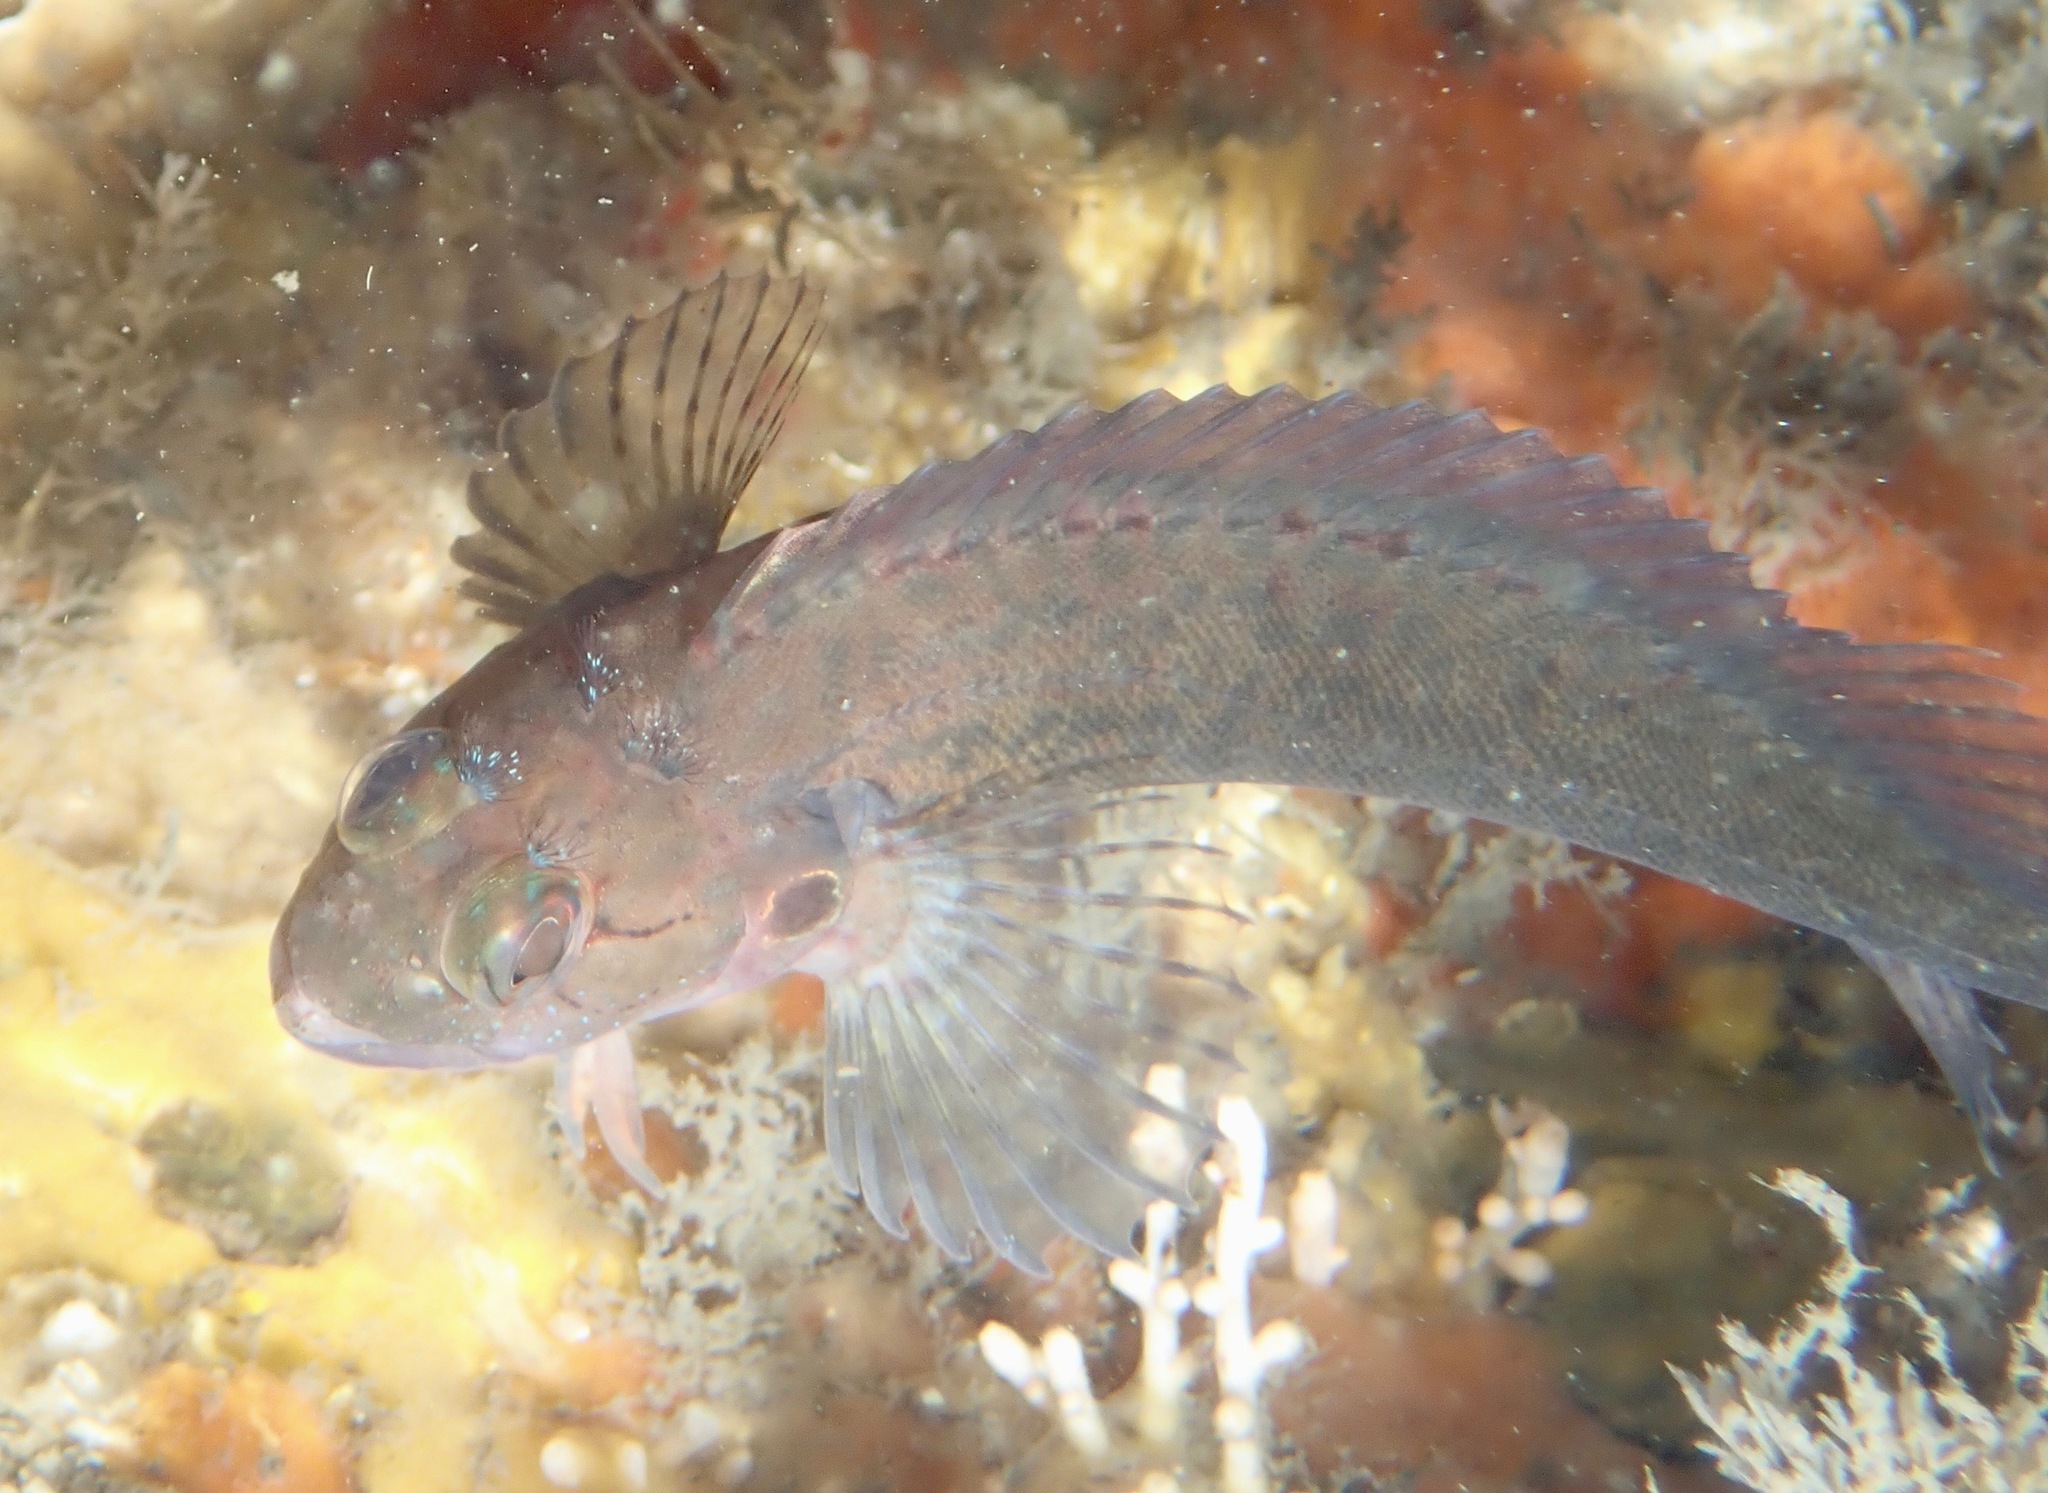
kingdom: Animalia
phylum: Chordata
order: Perciformes
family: Labrisomidae
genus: Labrisomus
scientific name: Labrisomus conditus
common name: Masquerader hairy blenny
